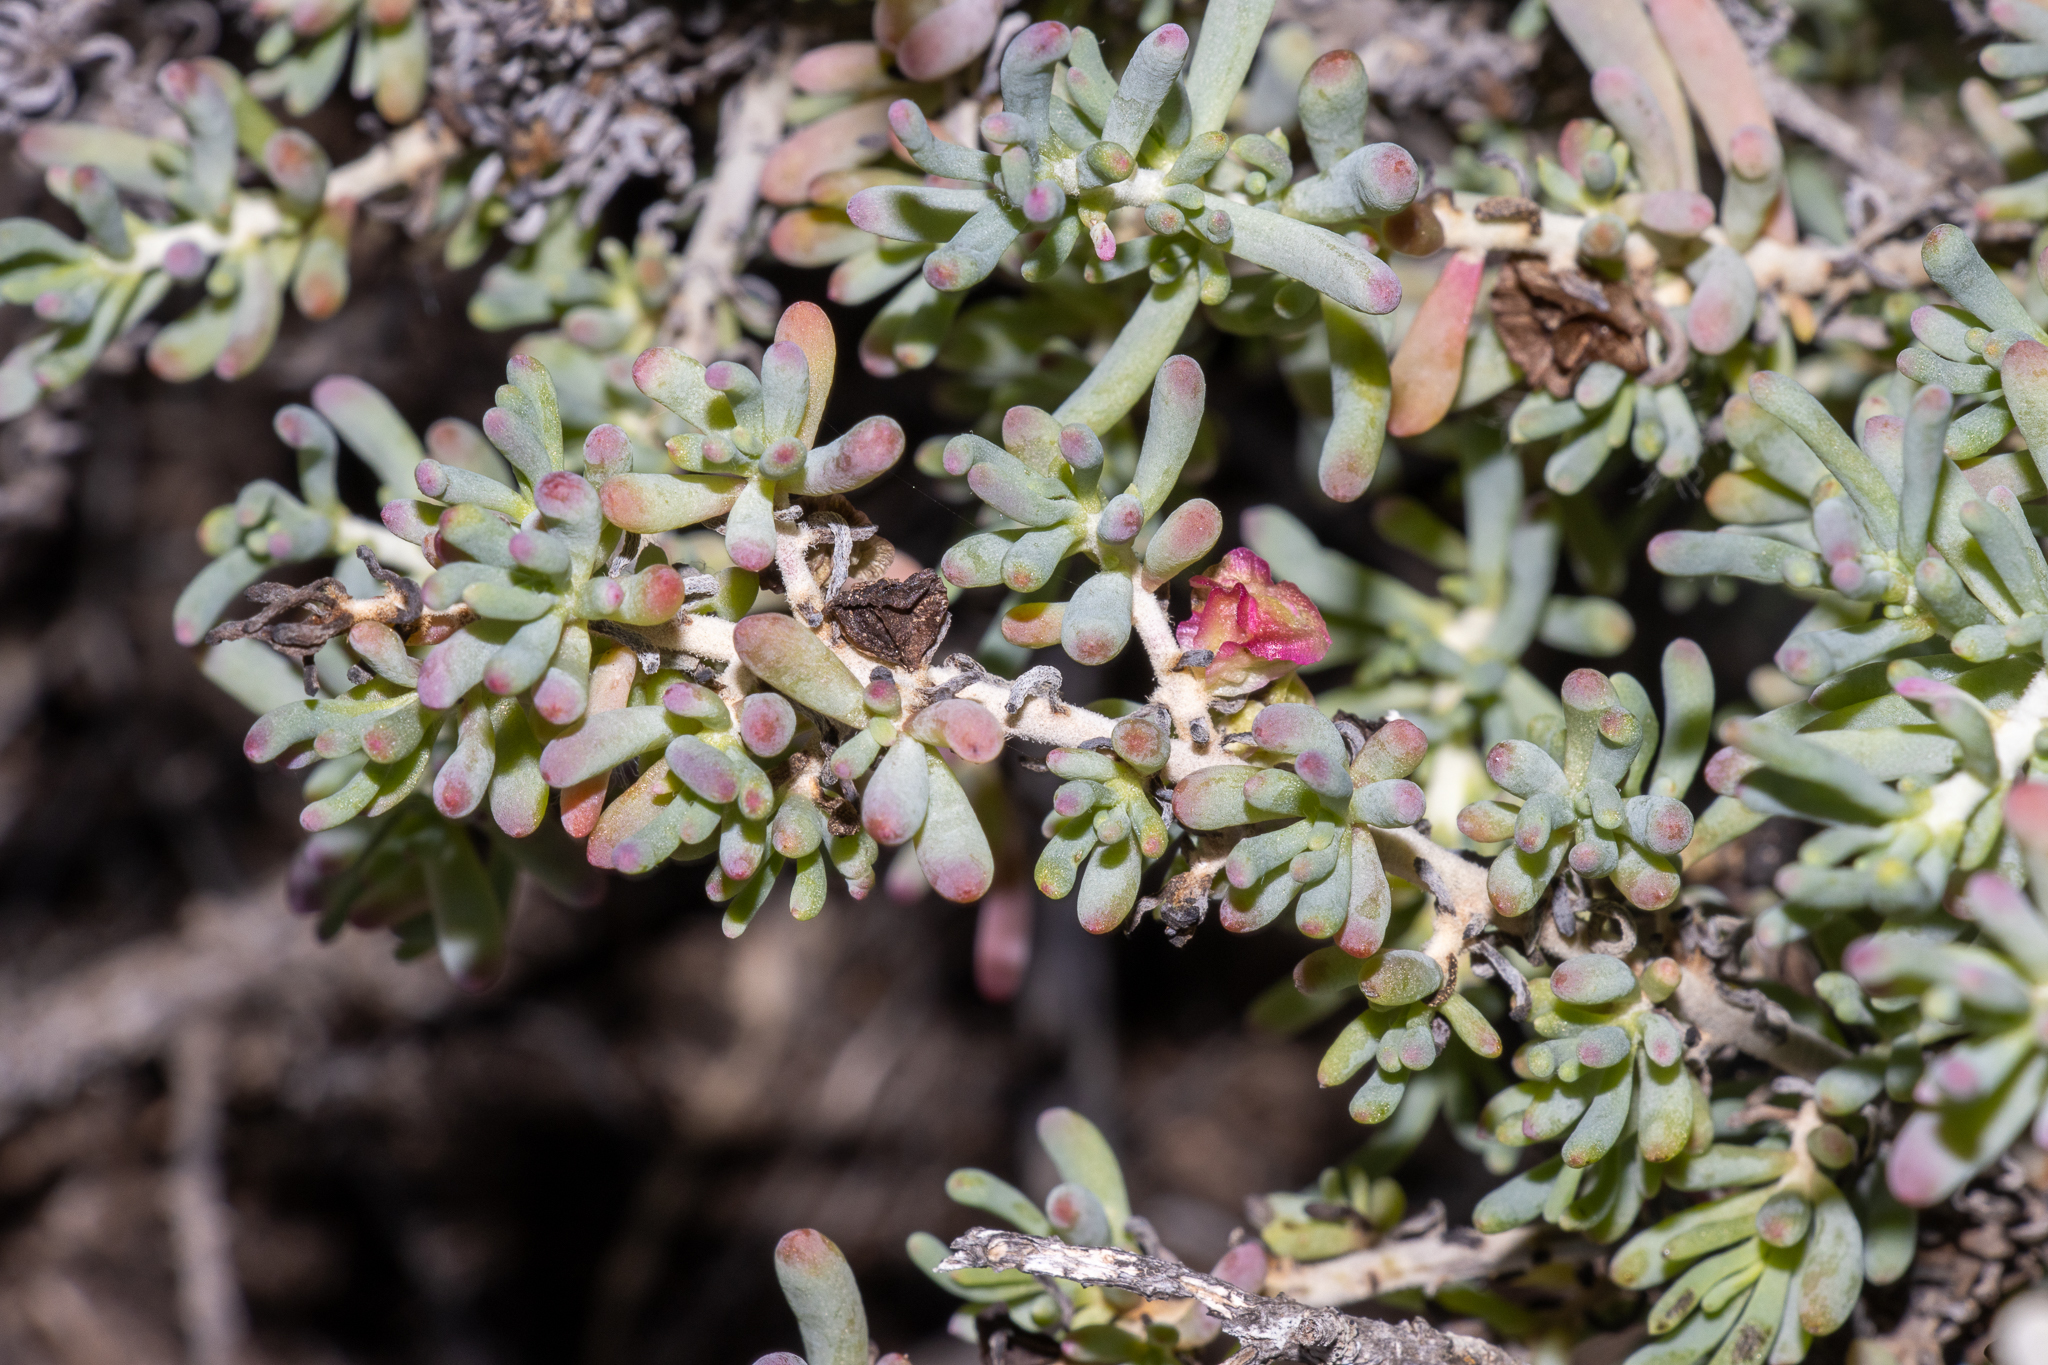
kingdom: Plantae
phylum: Tracheophyta
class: Magnoliopsida
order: Caryophyllales
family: Amaranthaceae
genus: Maireana
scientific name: Maireana erioclada
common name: Rosy bluebush
